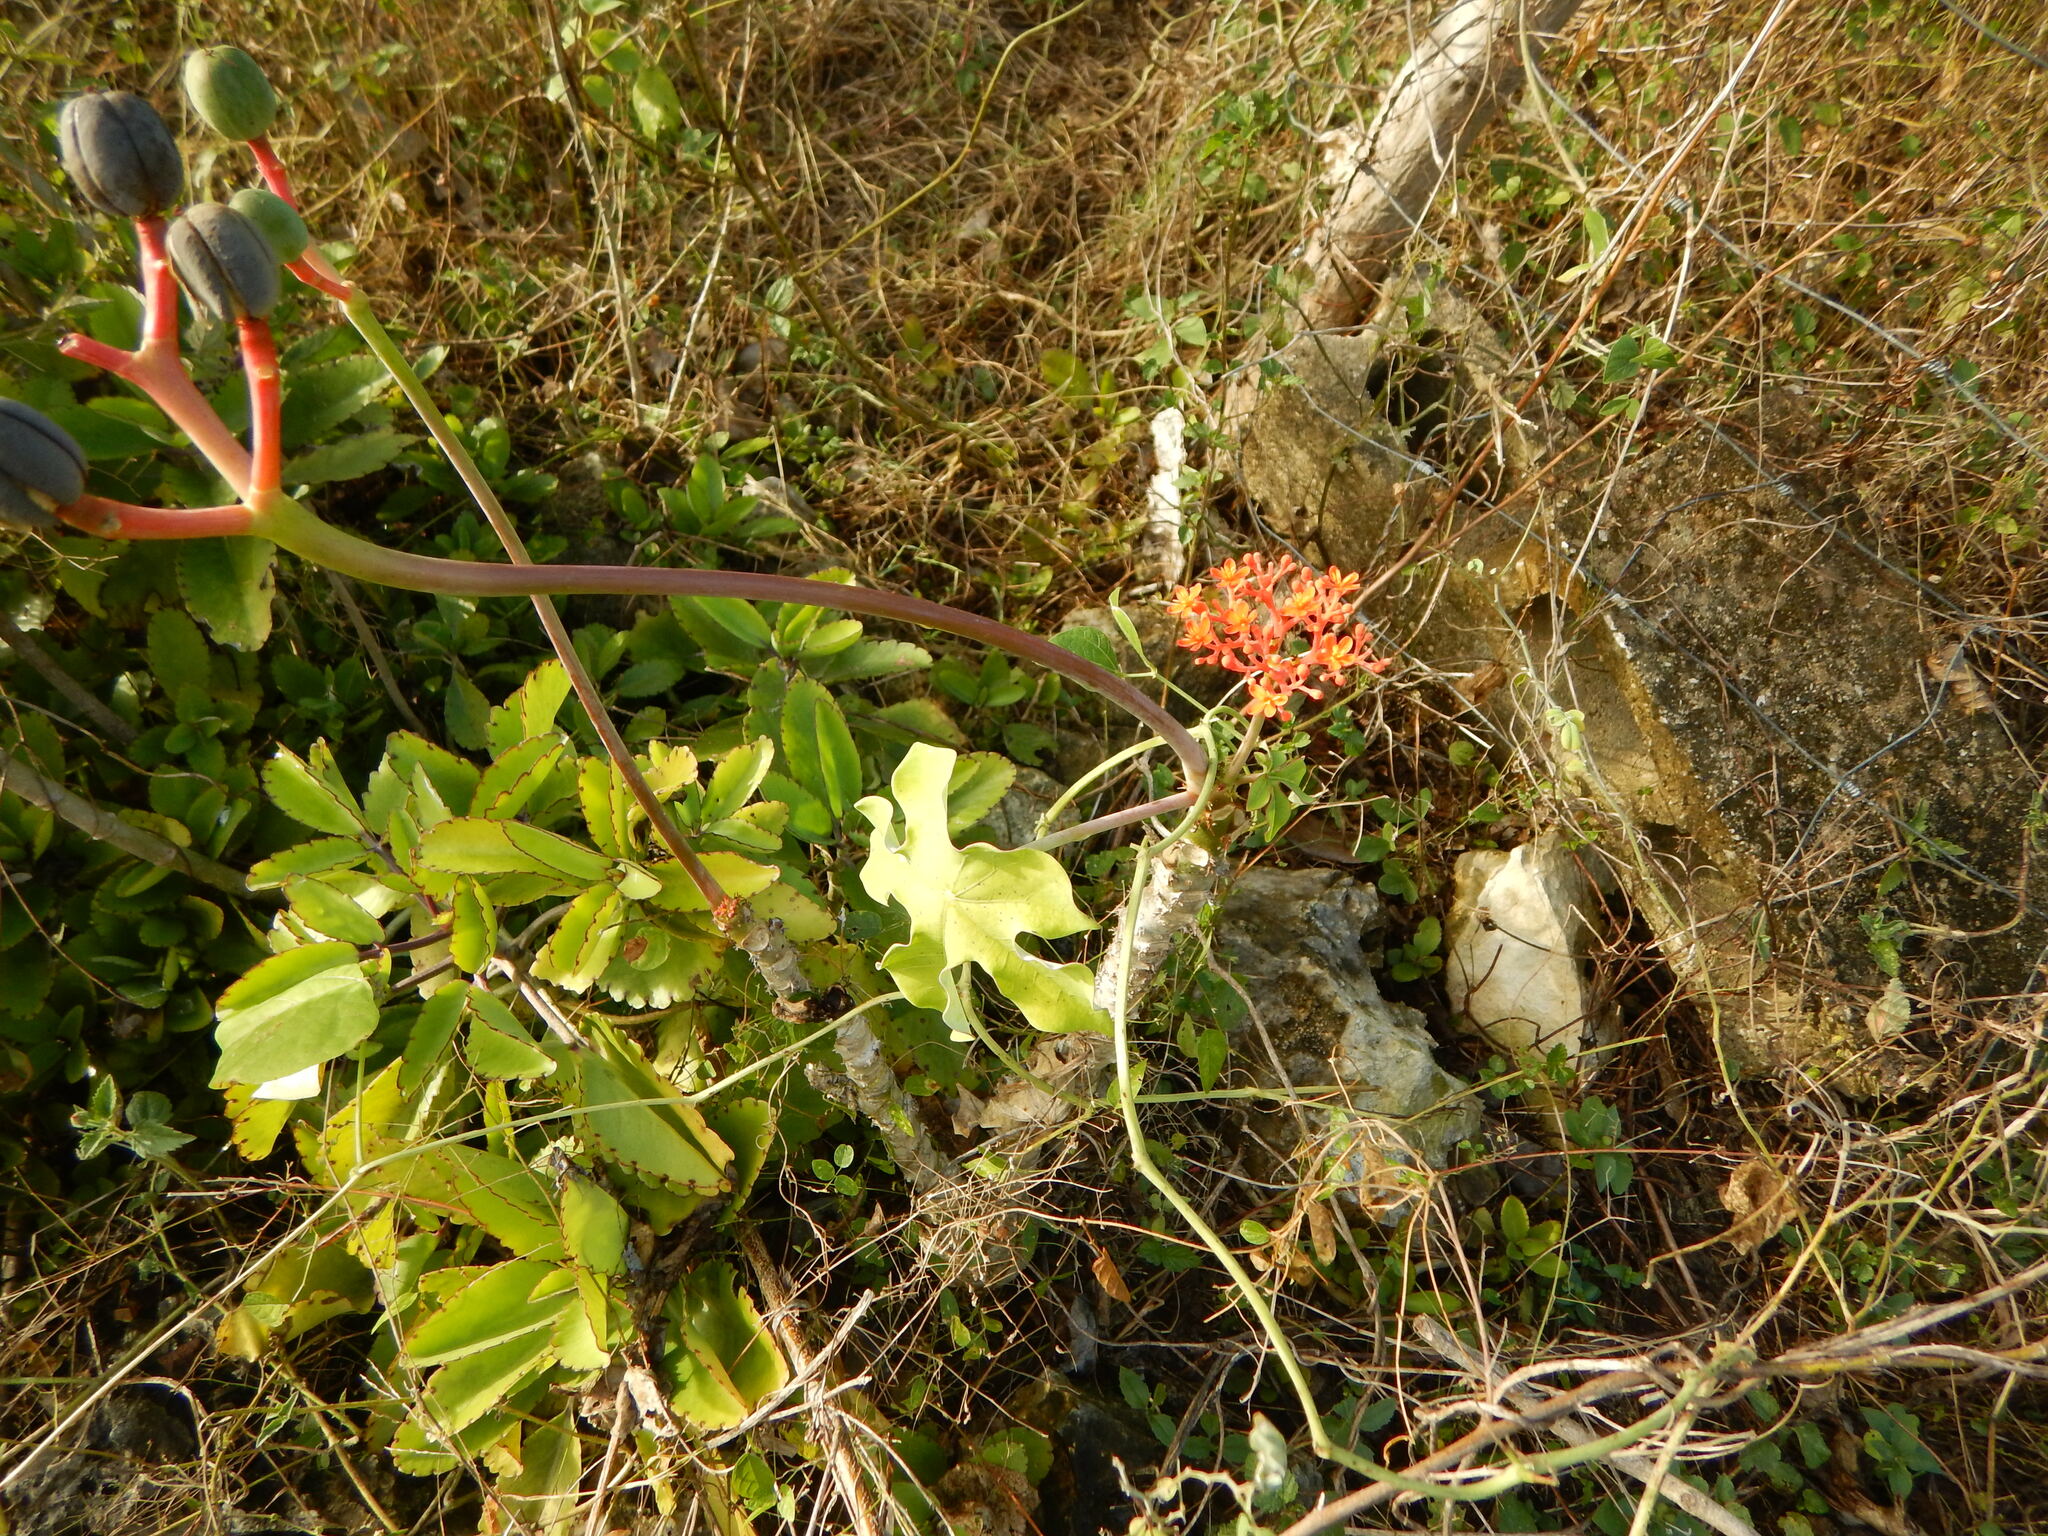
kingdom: Plantae
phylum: Tracheophyta
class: Magnoliopsida
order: Malpighiales
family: Euphorbiaceae
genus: Jatropha
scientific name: Jatropha podagrica
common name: Gout stalk
